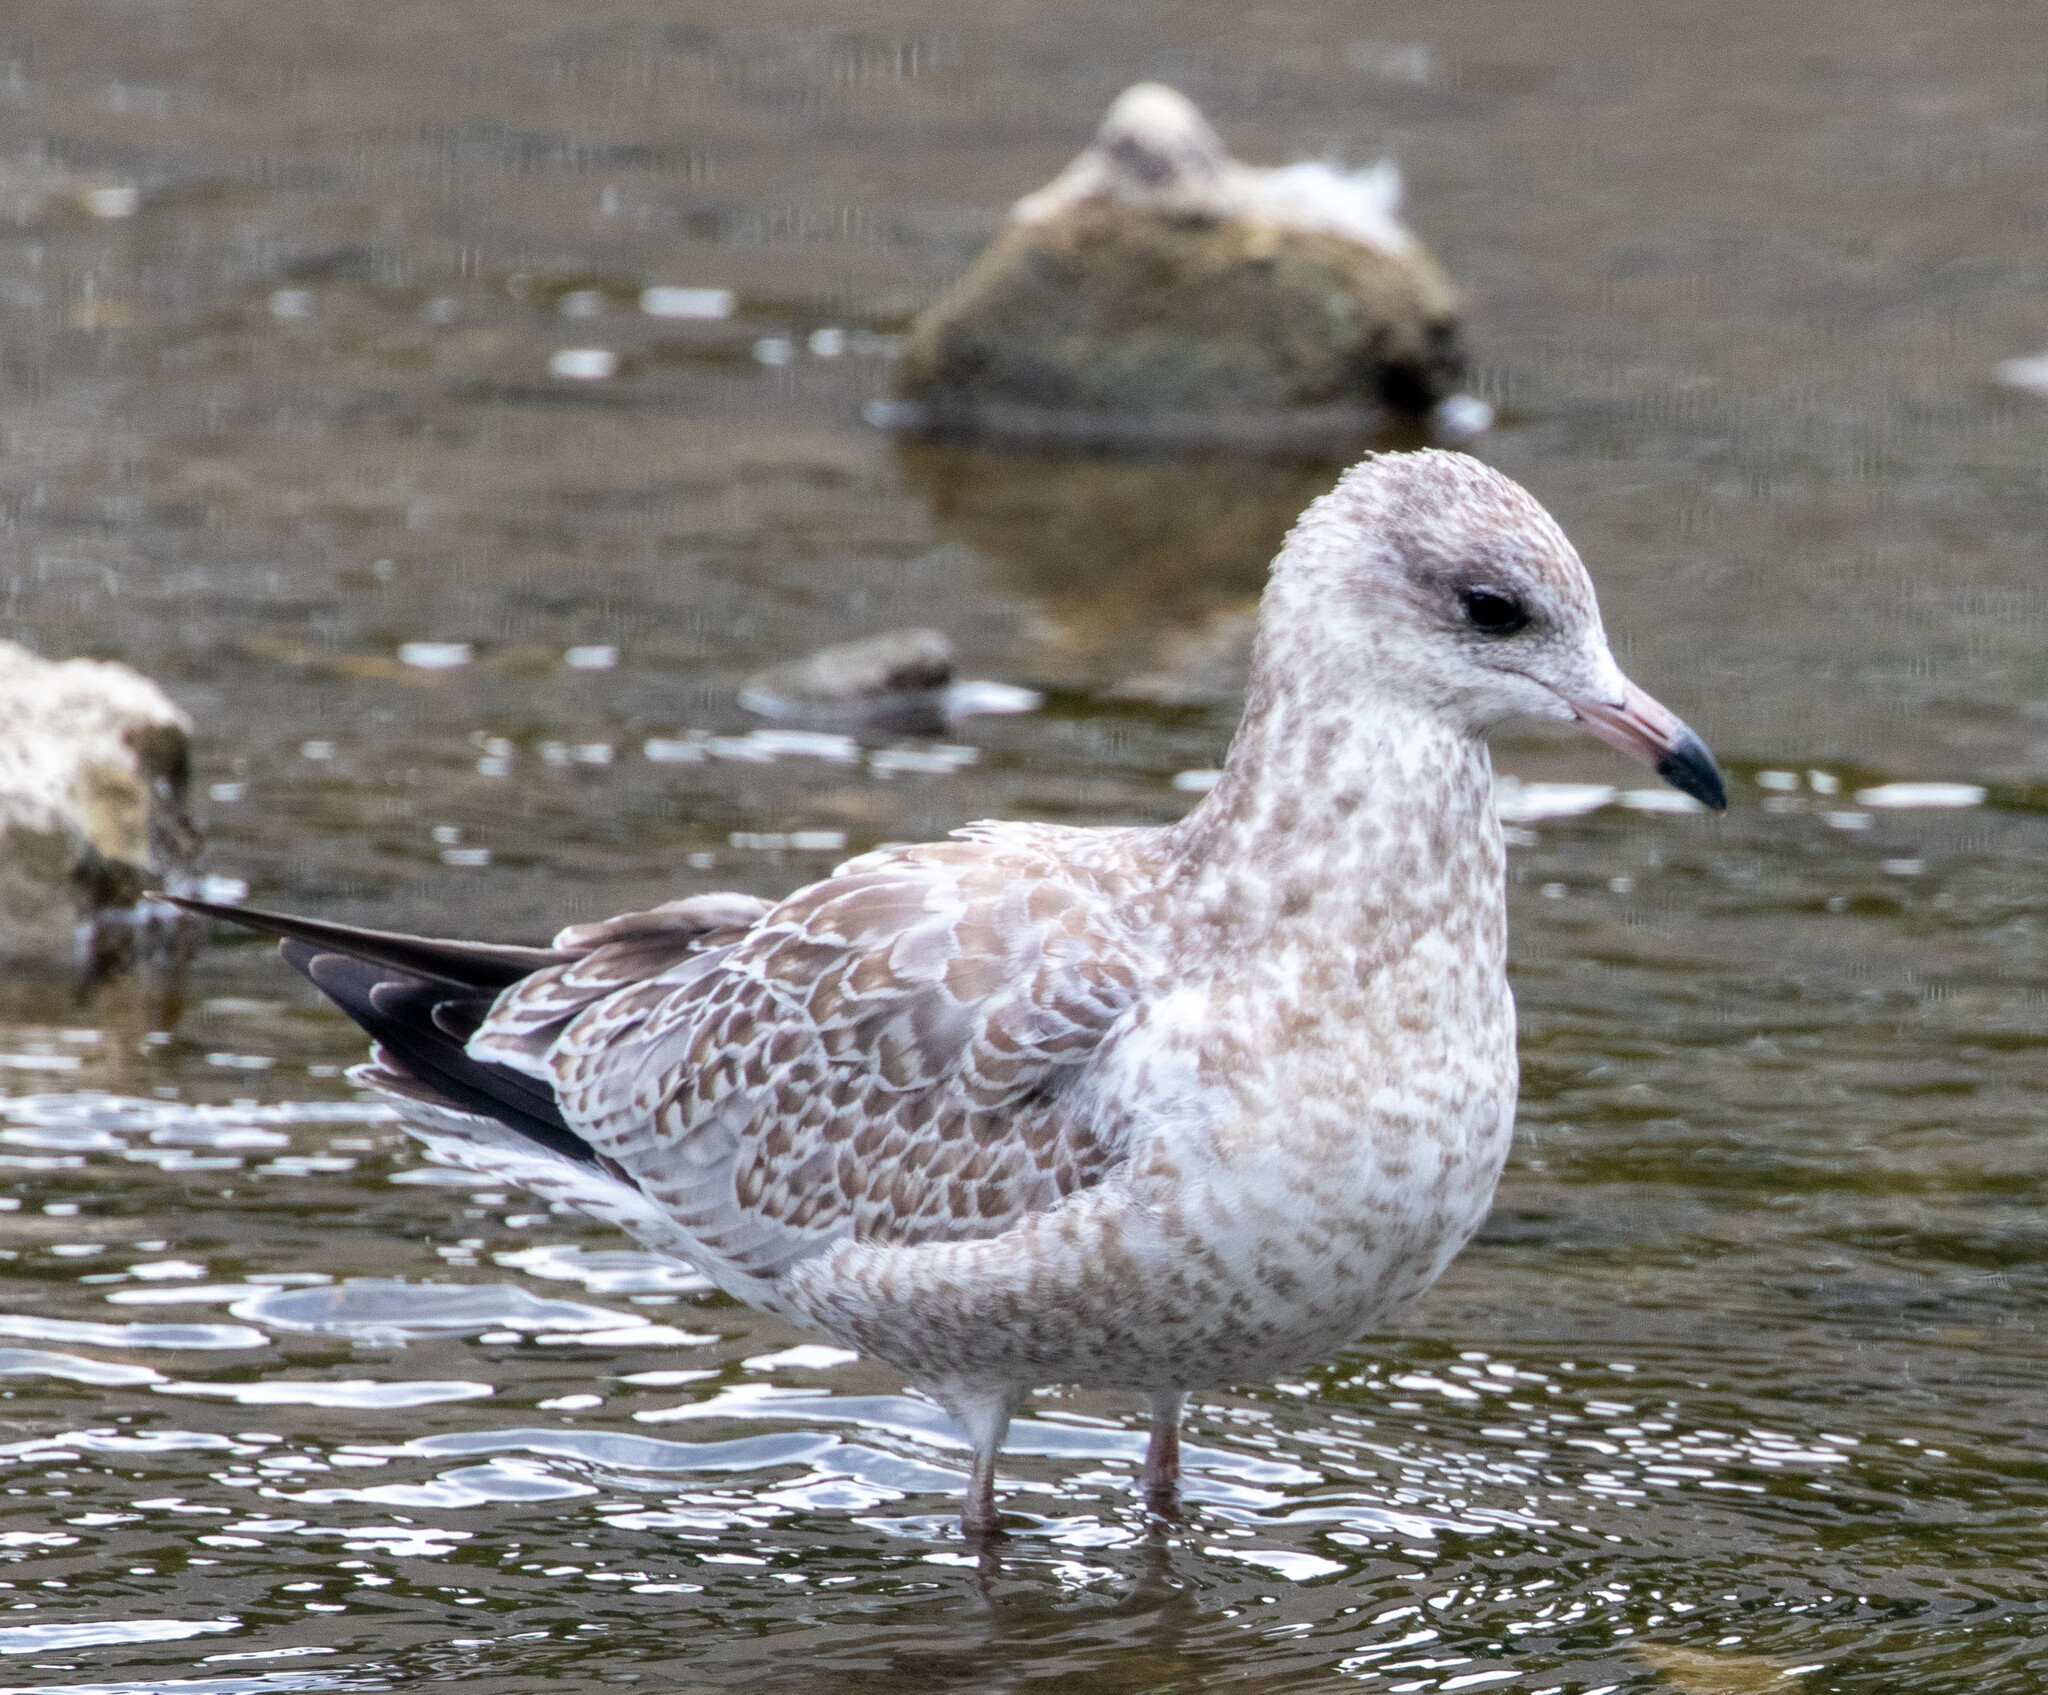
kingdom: Animalia
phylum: Chordata
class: Aves
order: Charadriiformes
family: Laridae
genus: Larus
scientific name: Larus delawarensis
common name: Ring-billed gull
